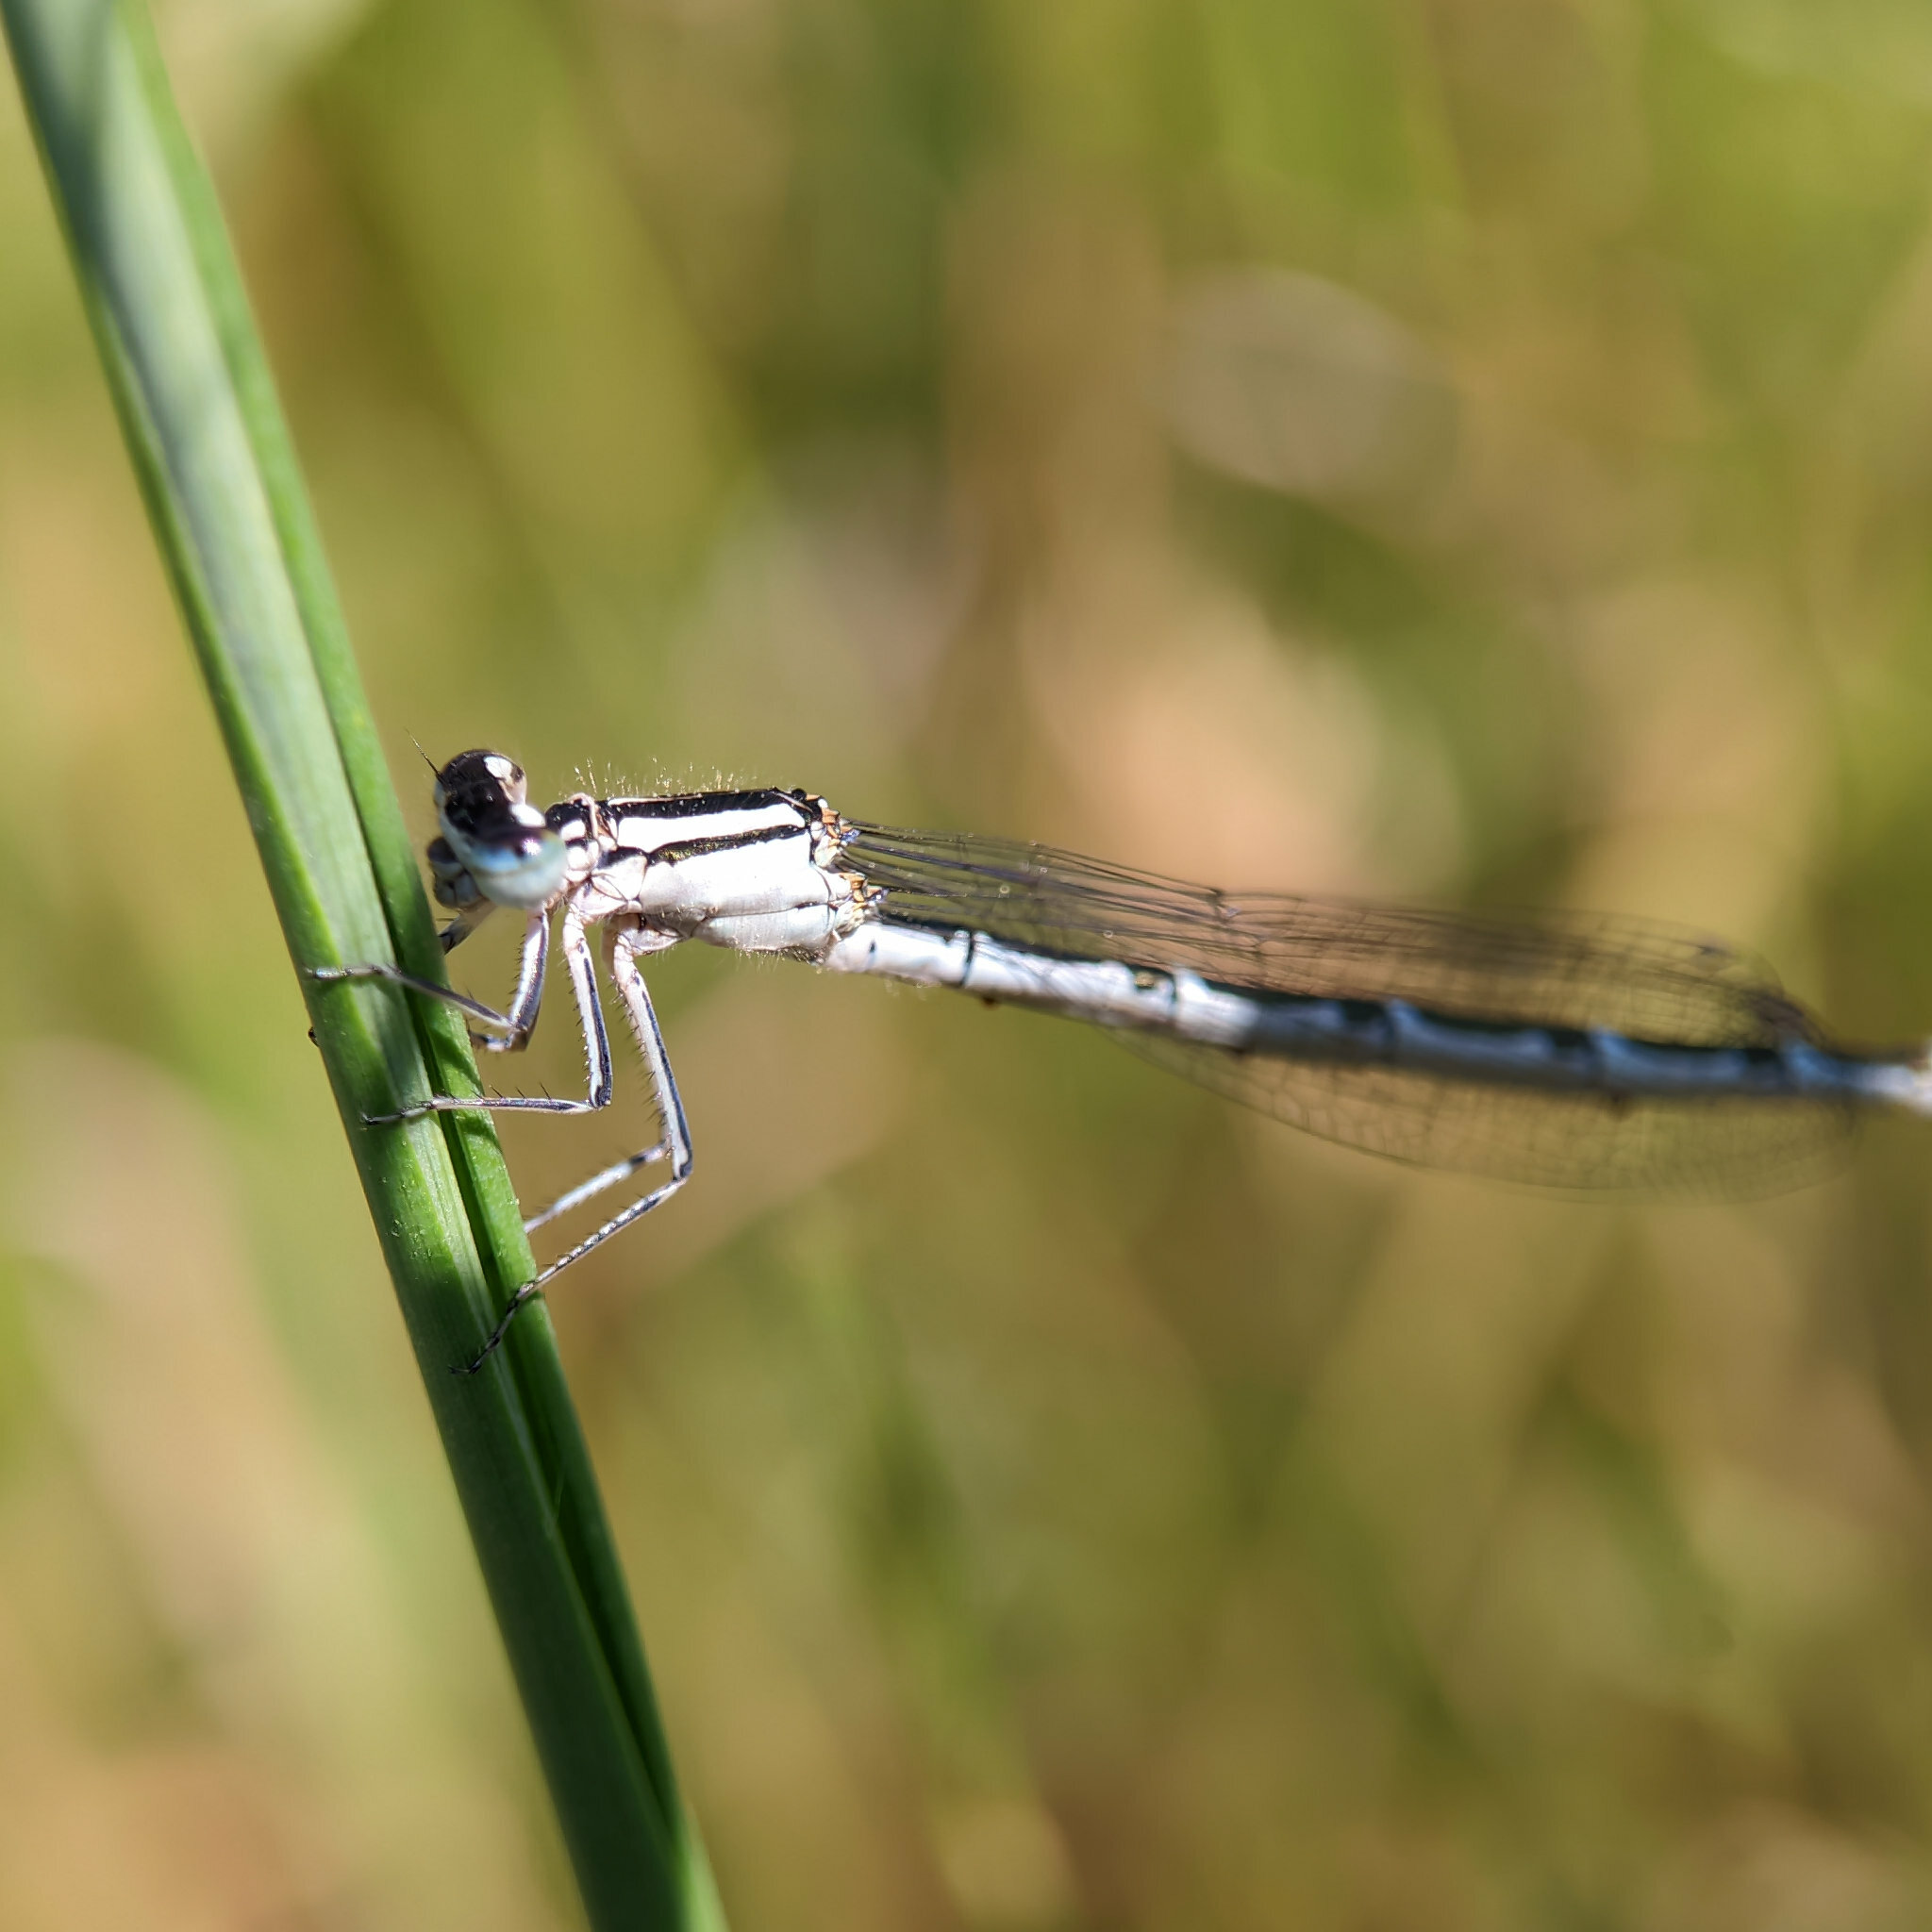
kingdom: Animalia
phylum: Arthropoda
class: Insecta
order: Odonata
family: Coenagrionidae
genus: Enallagma
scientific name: Enallagma cyathigerum
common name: Common blue damselfly
